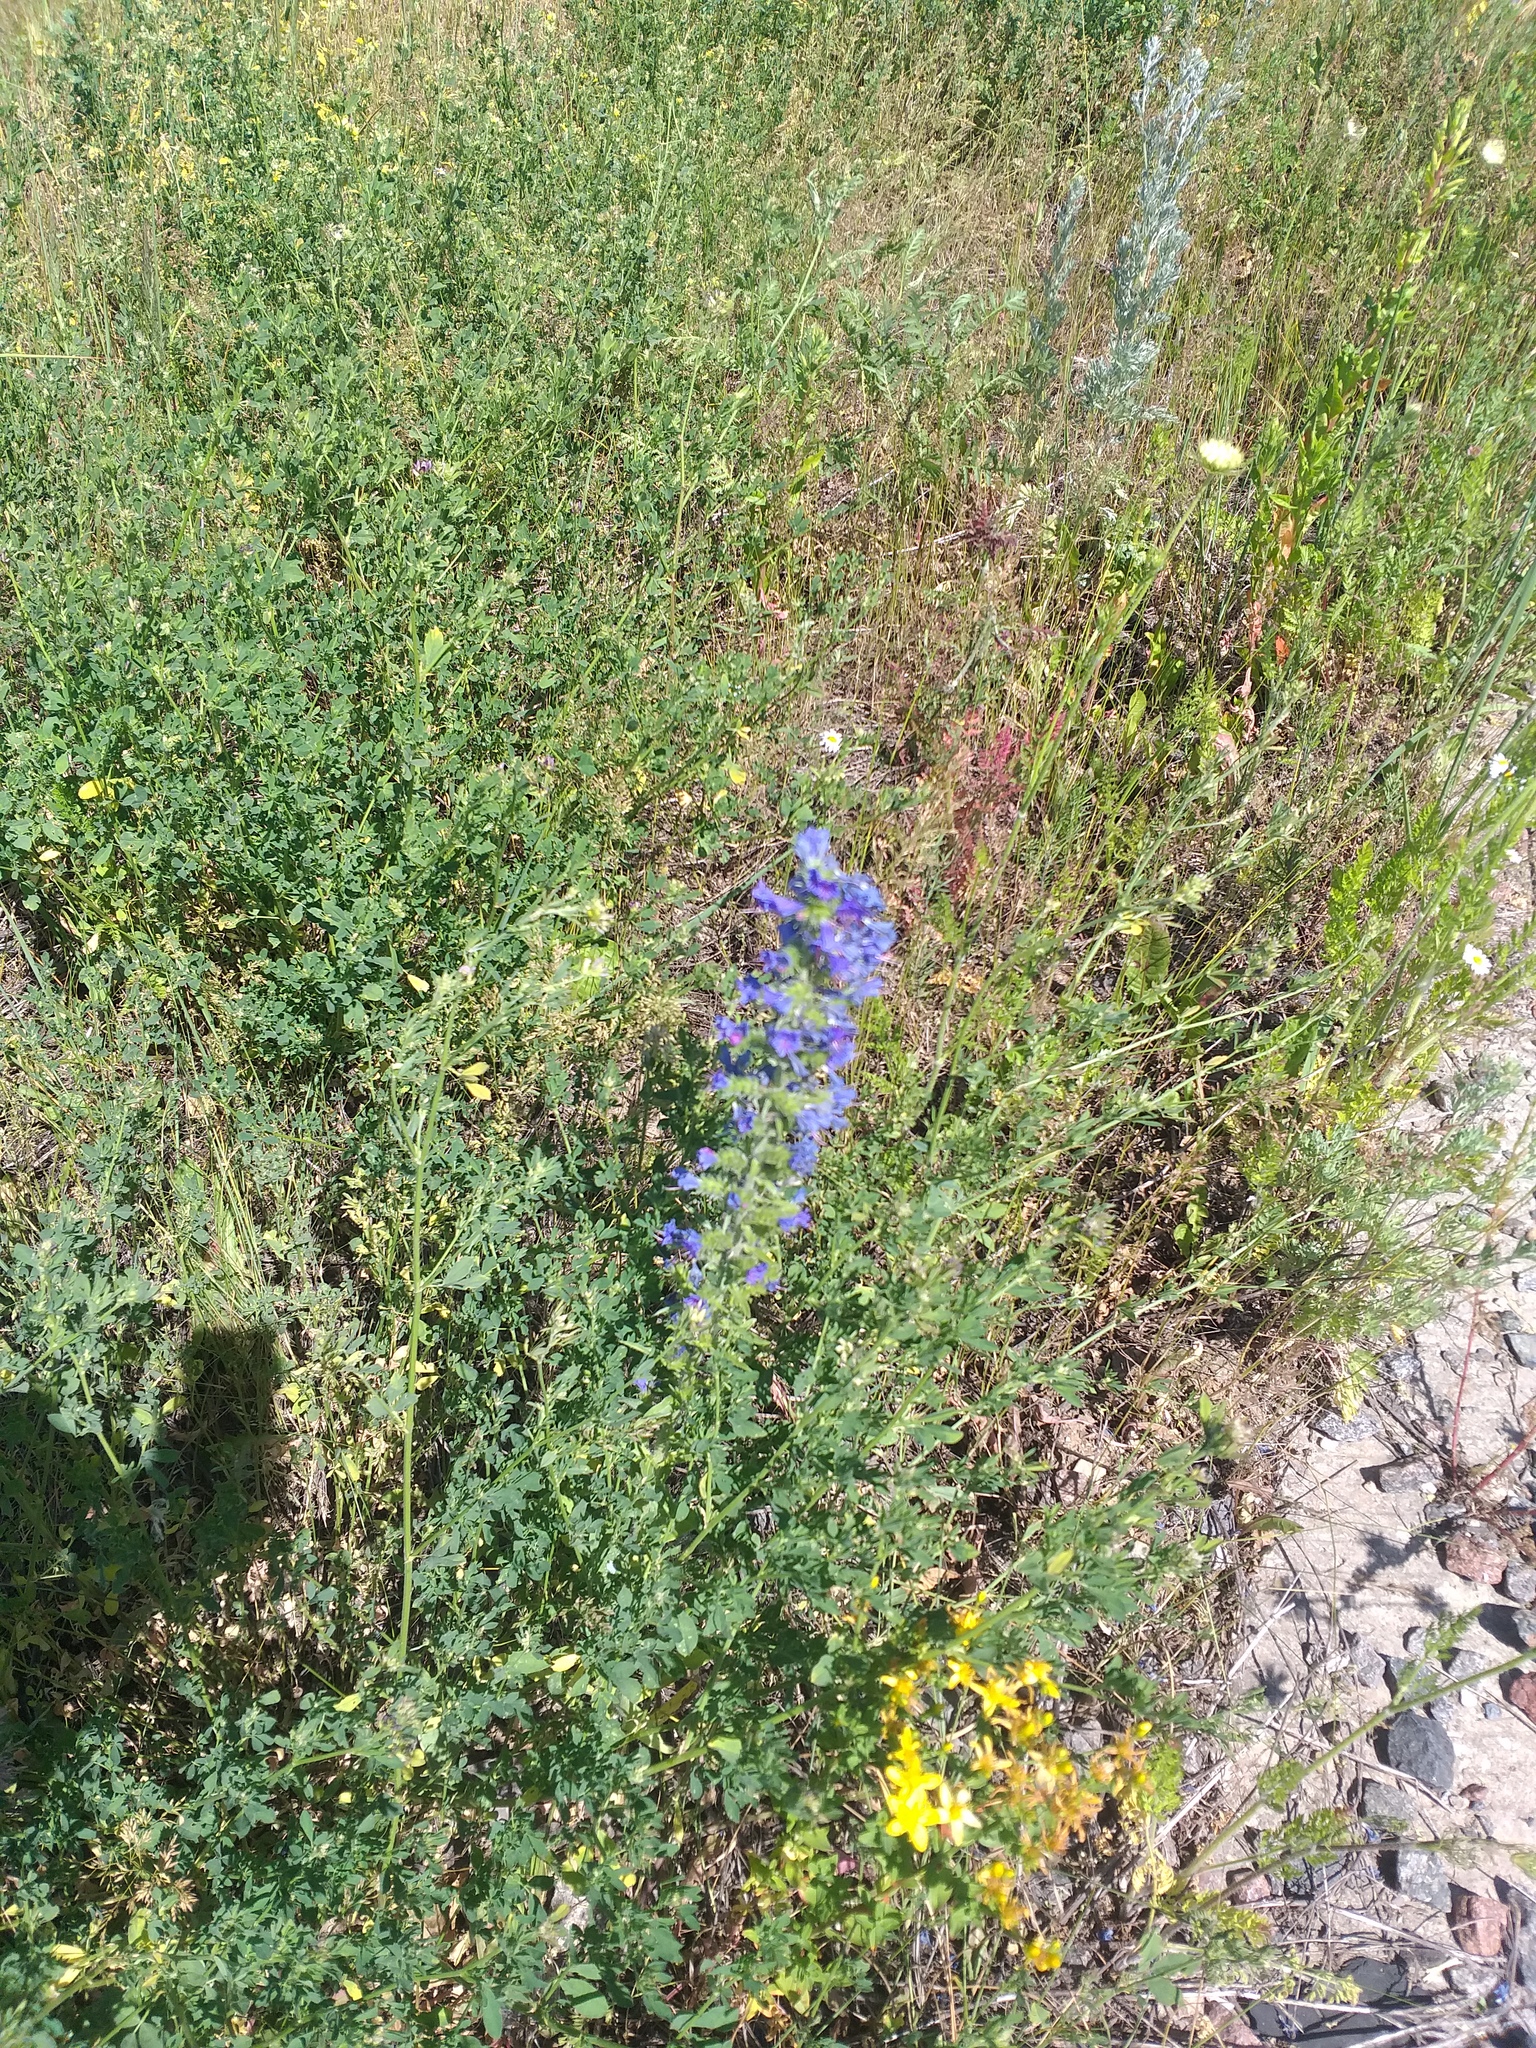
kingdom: Plantae
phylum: Tracheophyta
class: Magnoliopsida
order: Boraginales
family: Boraginaceae
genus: Echium
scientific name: Echium vulgare
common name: Common viper's bugloss
